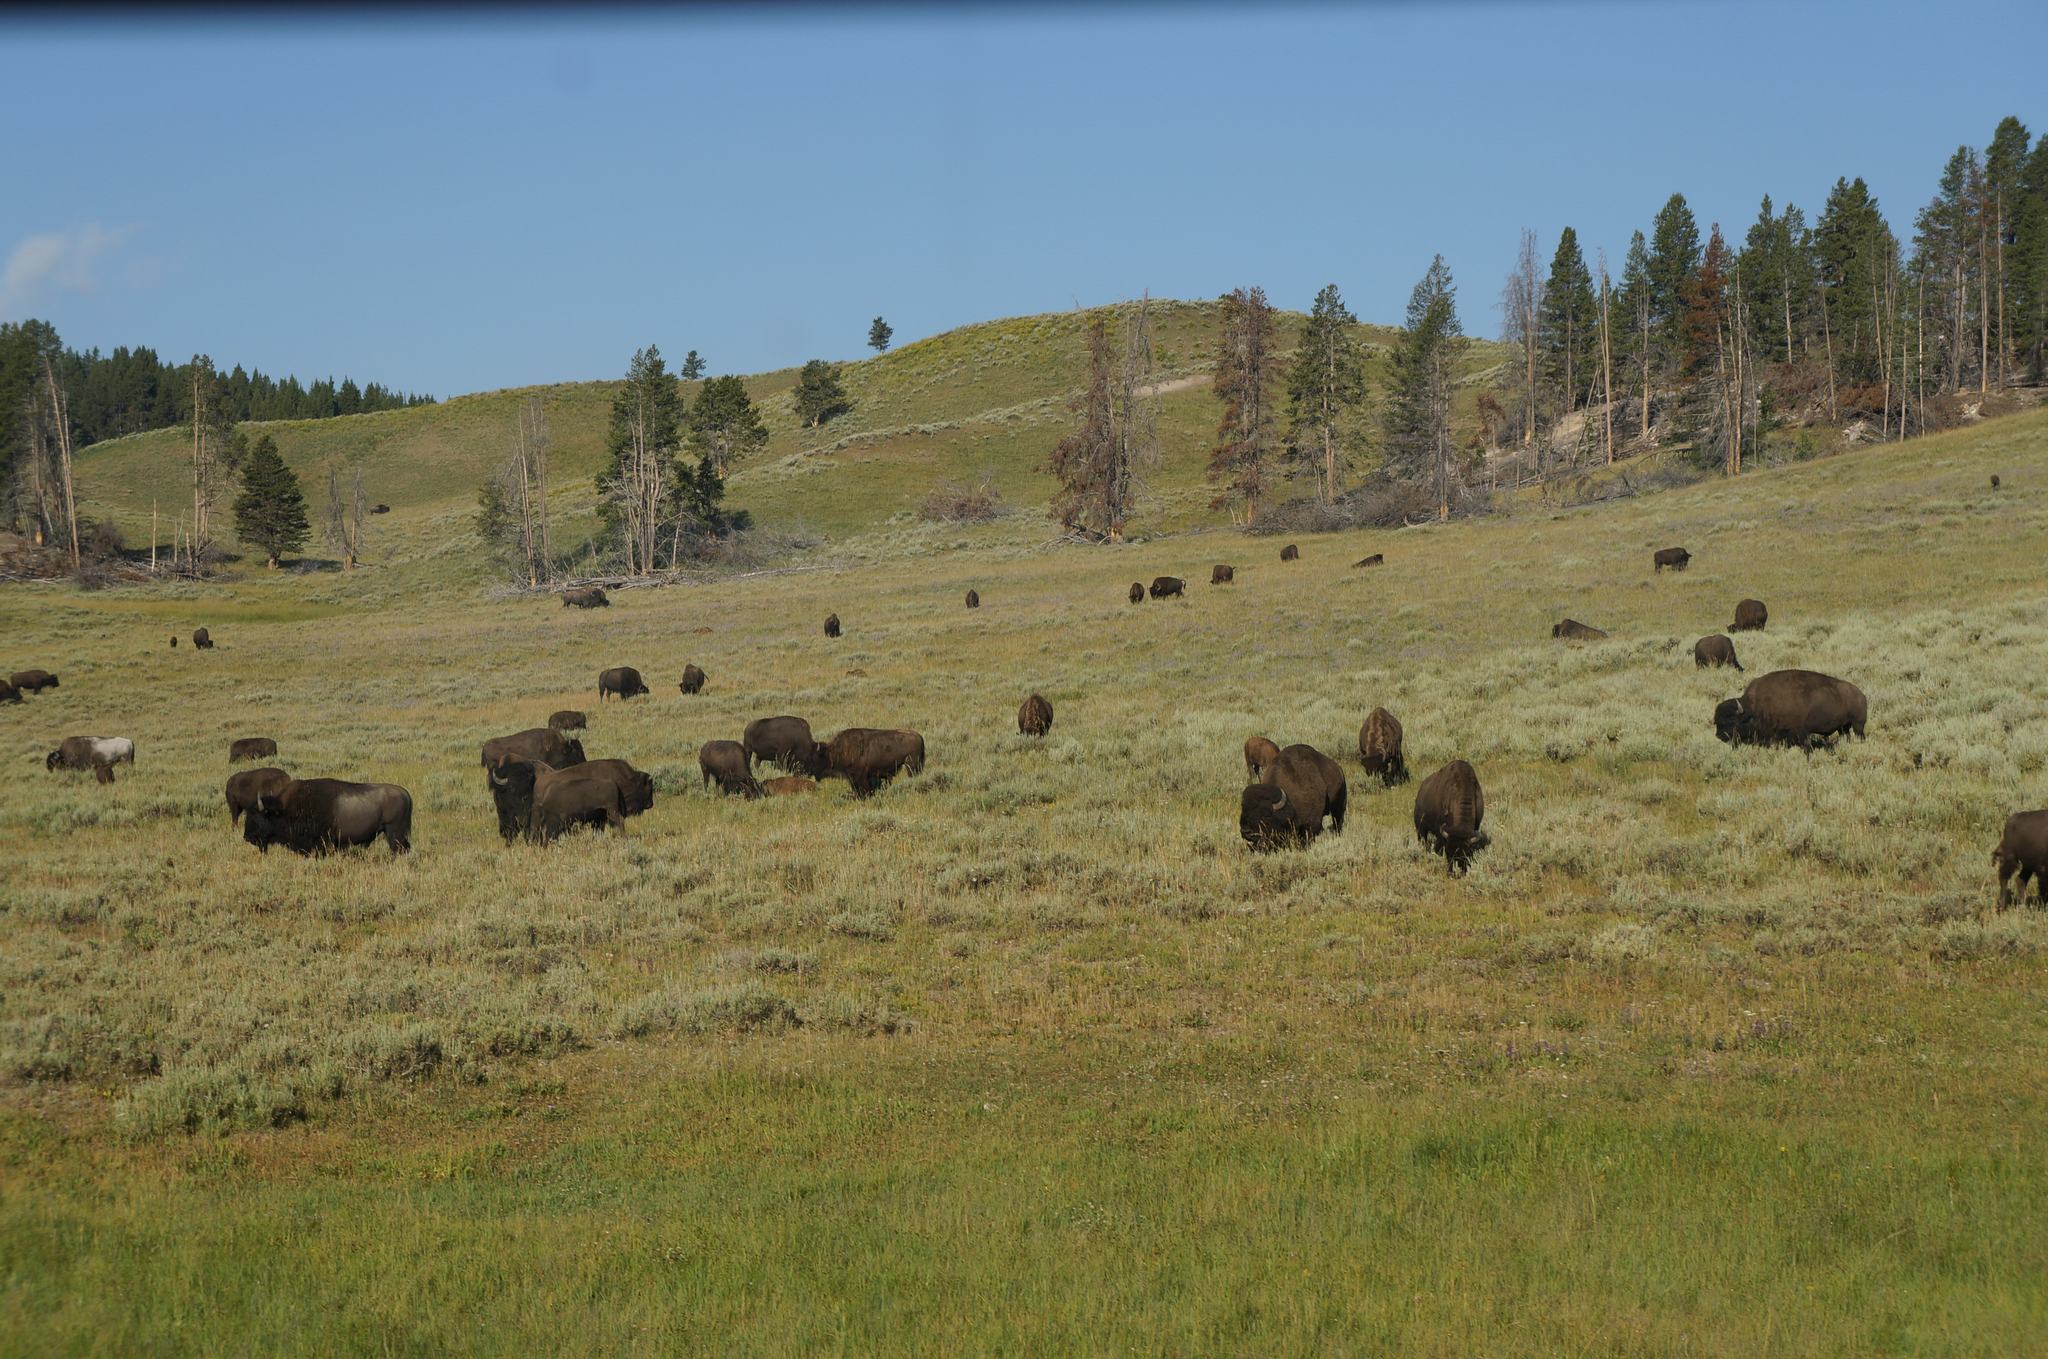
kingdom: Animalia
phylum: Chordata
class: Mammalia
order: Artiodactyla
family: Bovidae
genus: Bison
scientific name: Bison bison
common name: American bison
